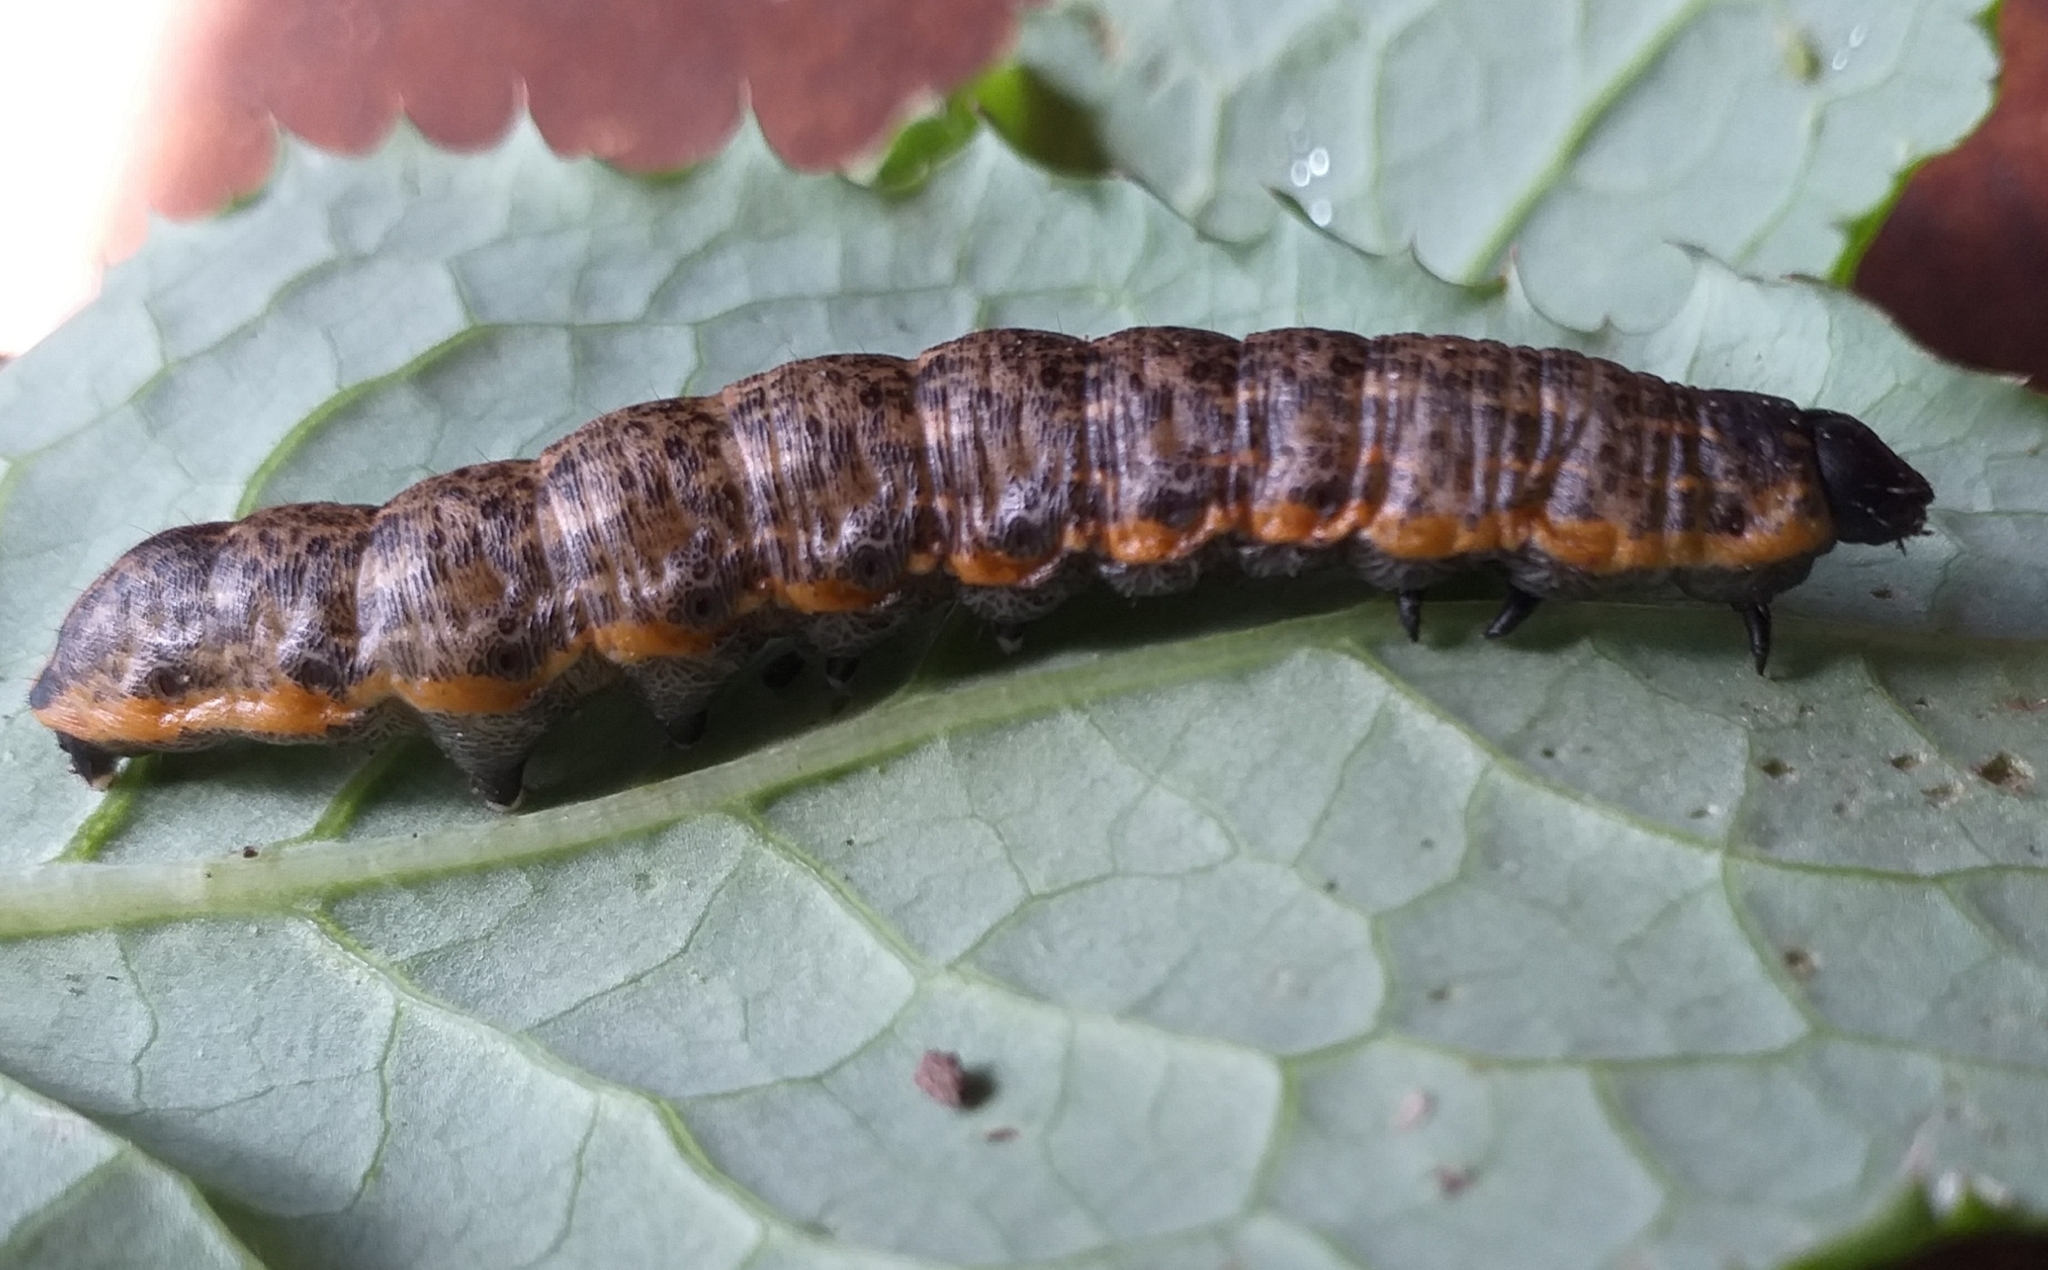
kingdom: Animalia
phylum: Arthropoda
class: Insecta
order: Lepidoptera
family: Noctuidae
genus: Cucullia
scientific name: Cucullia umbratica
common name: Shark
